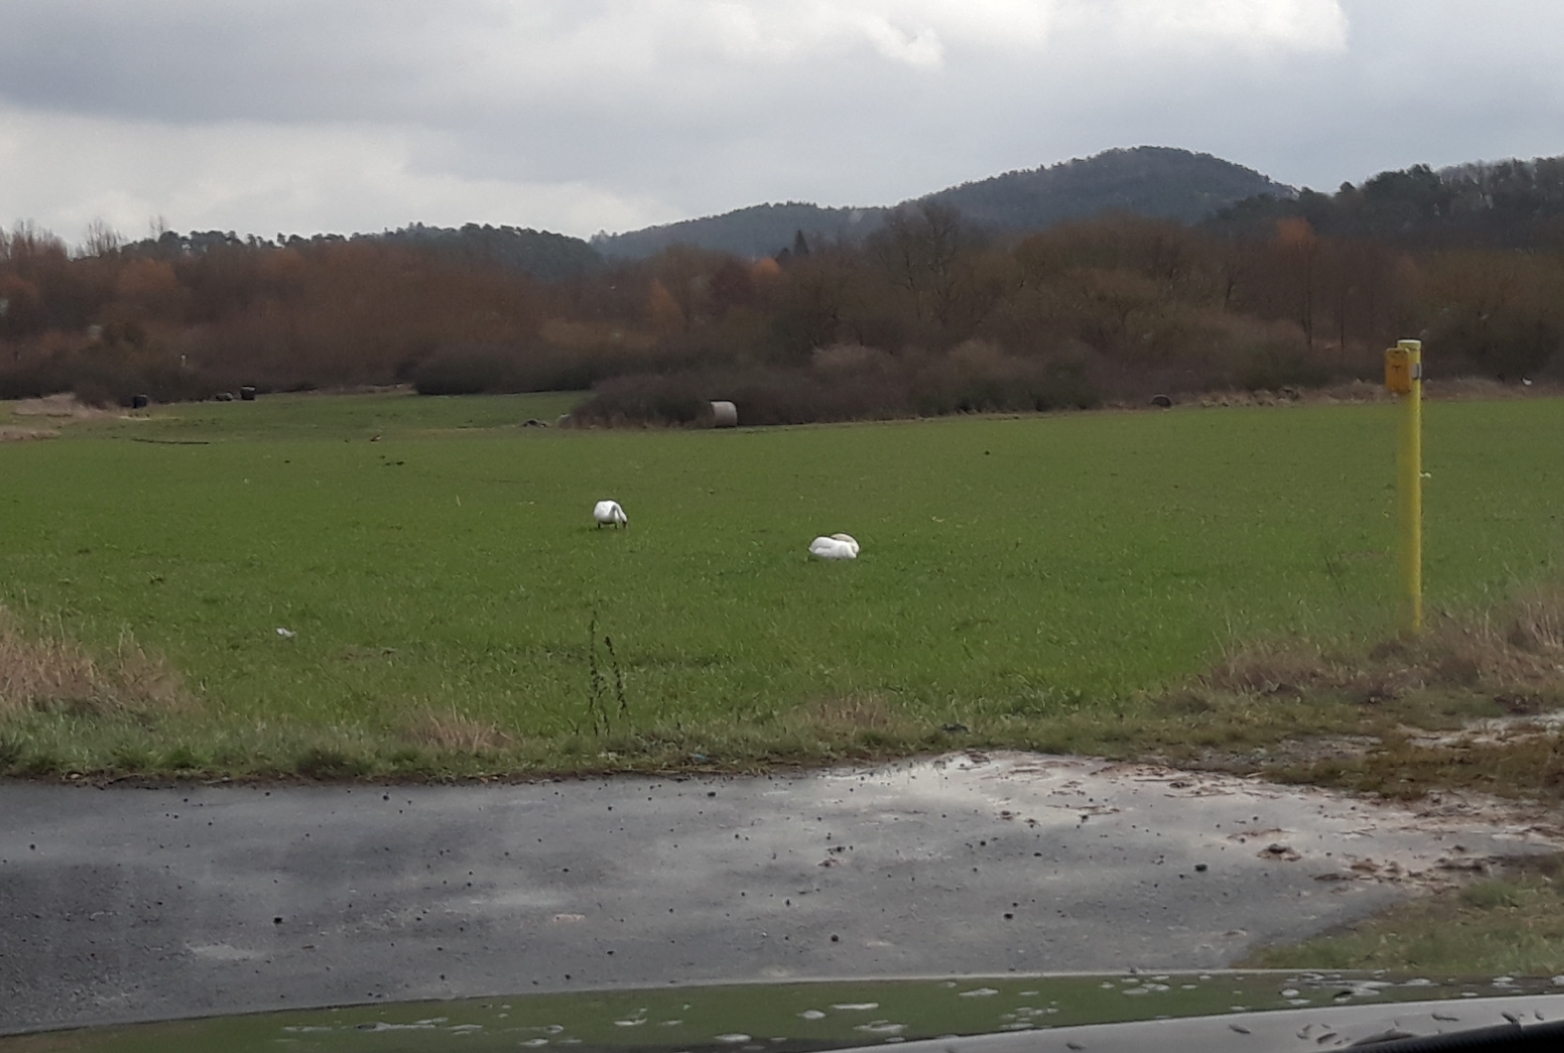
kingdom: Animalia
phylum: Chordata
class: Aves
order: Anseriformes
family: Anatidae
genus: Cygnus
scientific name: Cygnus olor
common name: Mute swan
